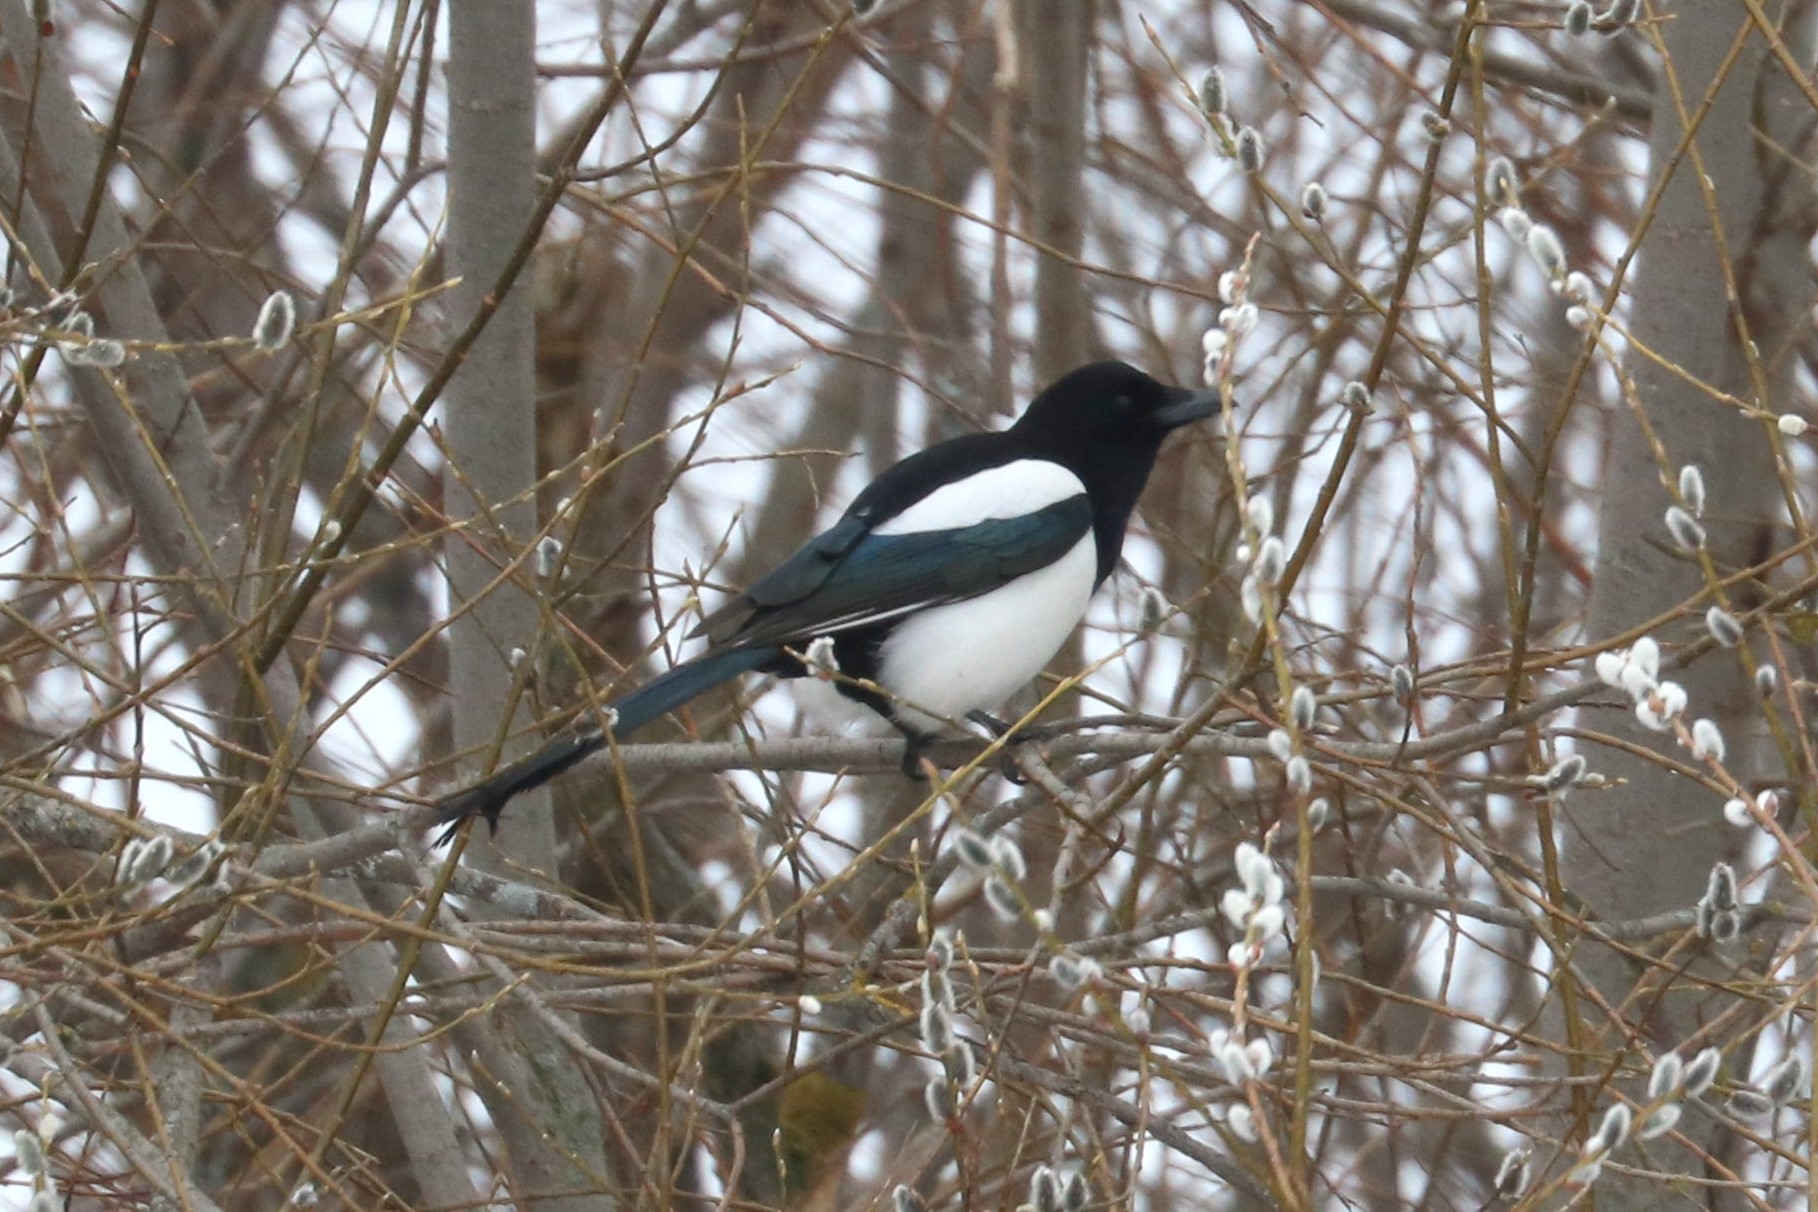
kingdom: Animalia
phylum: Chordata
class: Aves
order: Passeriformes
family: Corvidae
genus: Pica
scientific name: Pica pica
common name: Eurasian magpie
